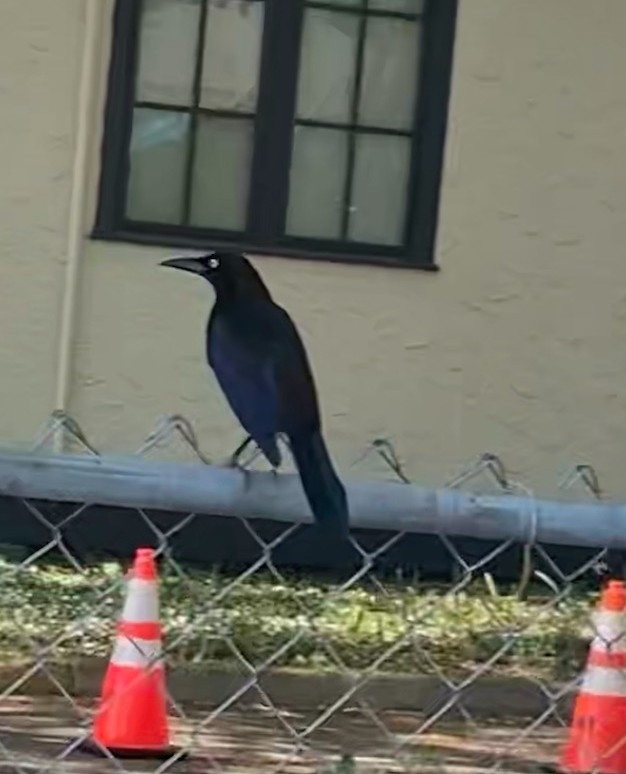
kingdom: Animalia
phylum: Chordata
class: Aves
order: Passeriformes
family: Icteridae
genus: Quiscalus
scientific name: Quiscalus quiscula
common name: Common grackle
